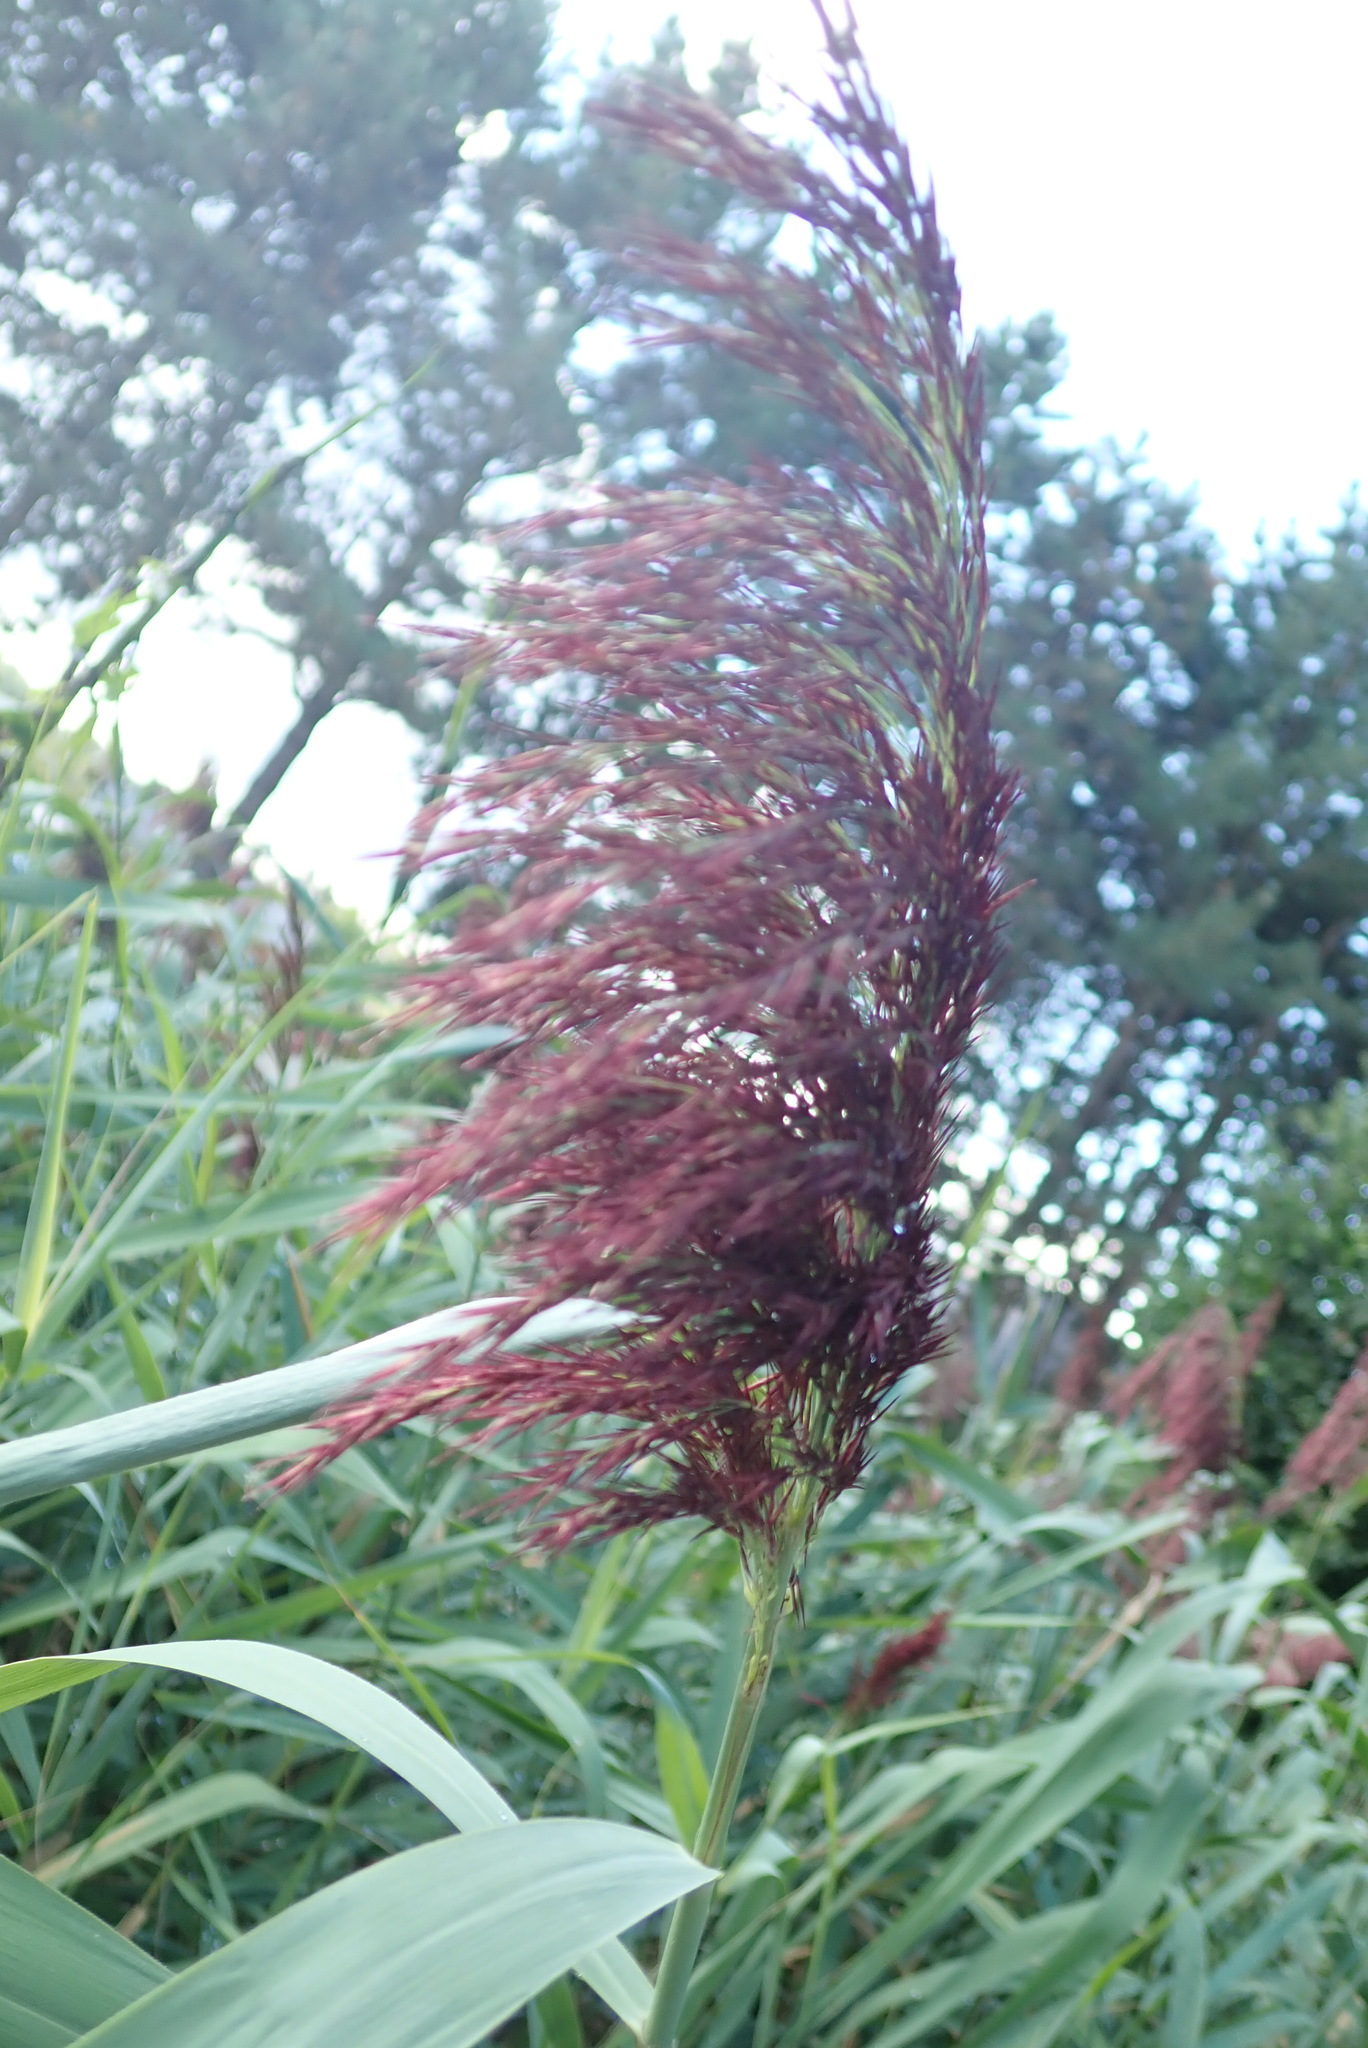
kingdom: Plantae
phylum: Tracheophyta
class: Liliopsida
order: Poales
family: Poaceae
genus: Phragmites
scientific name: Phragmites australis
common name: Common reed
